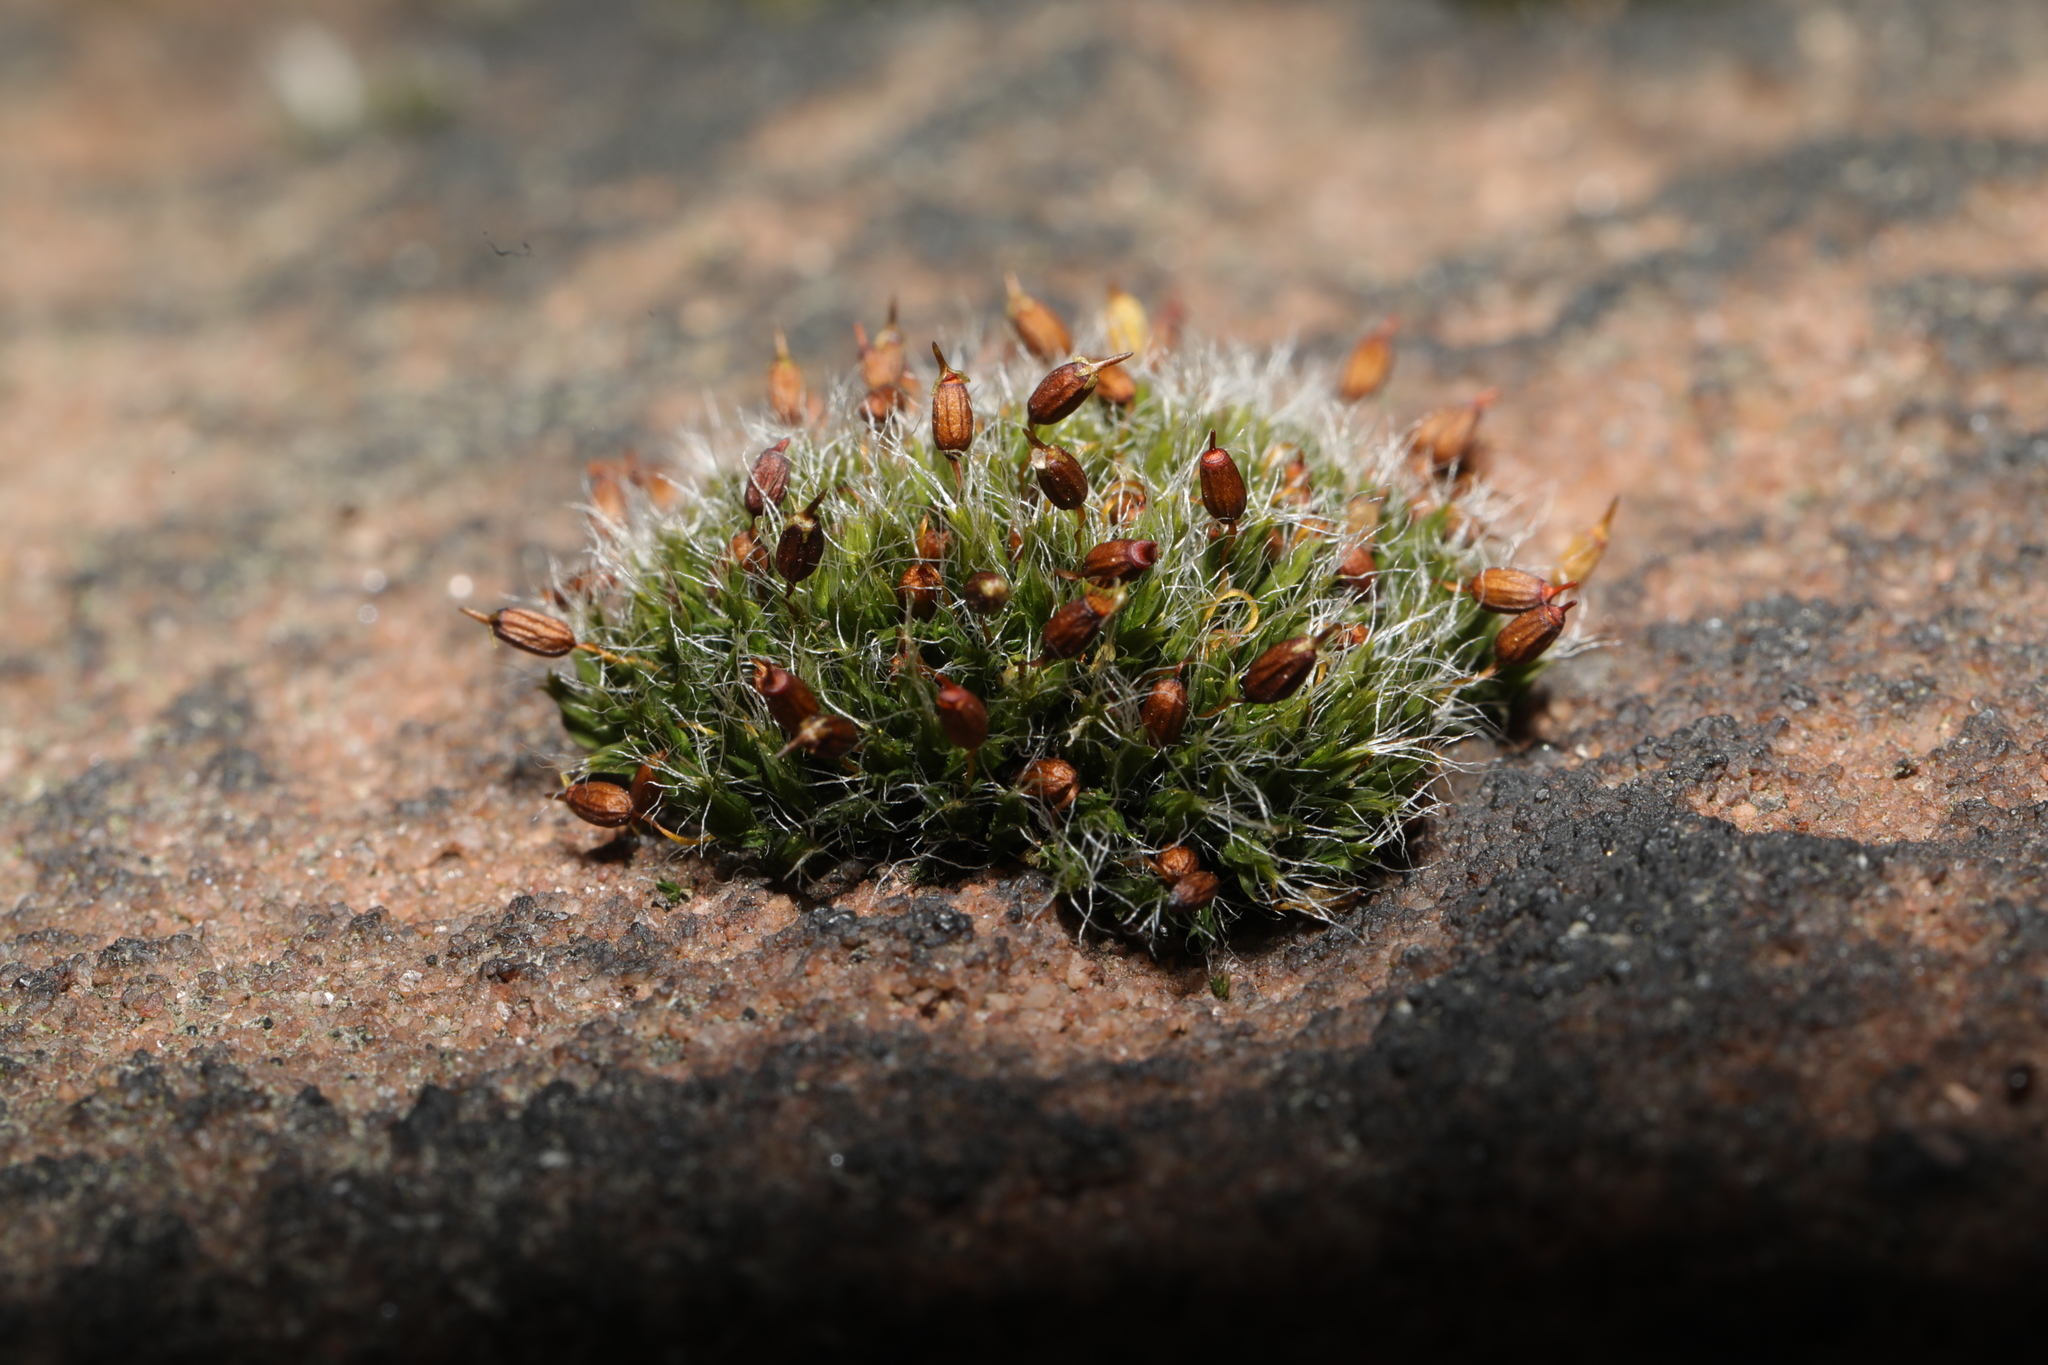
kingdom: Plantae
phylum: Bryophyta
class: Bryopsida
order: Grimmiales
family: Grimmiaceae
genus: Grimmia
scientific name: Grimmia pulvinata
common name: Grey-cushioned grimmia
